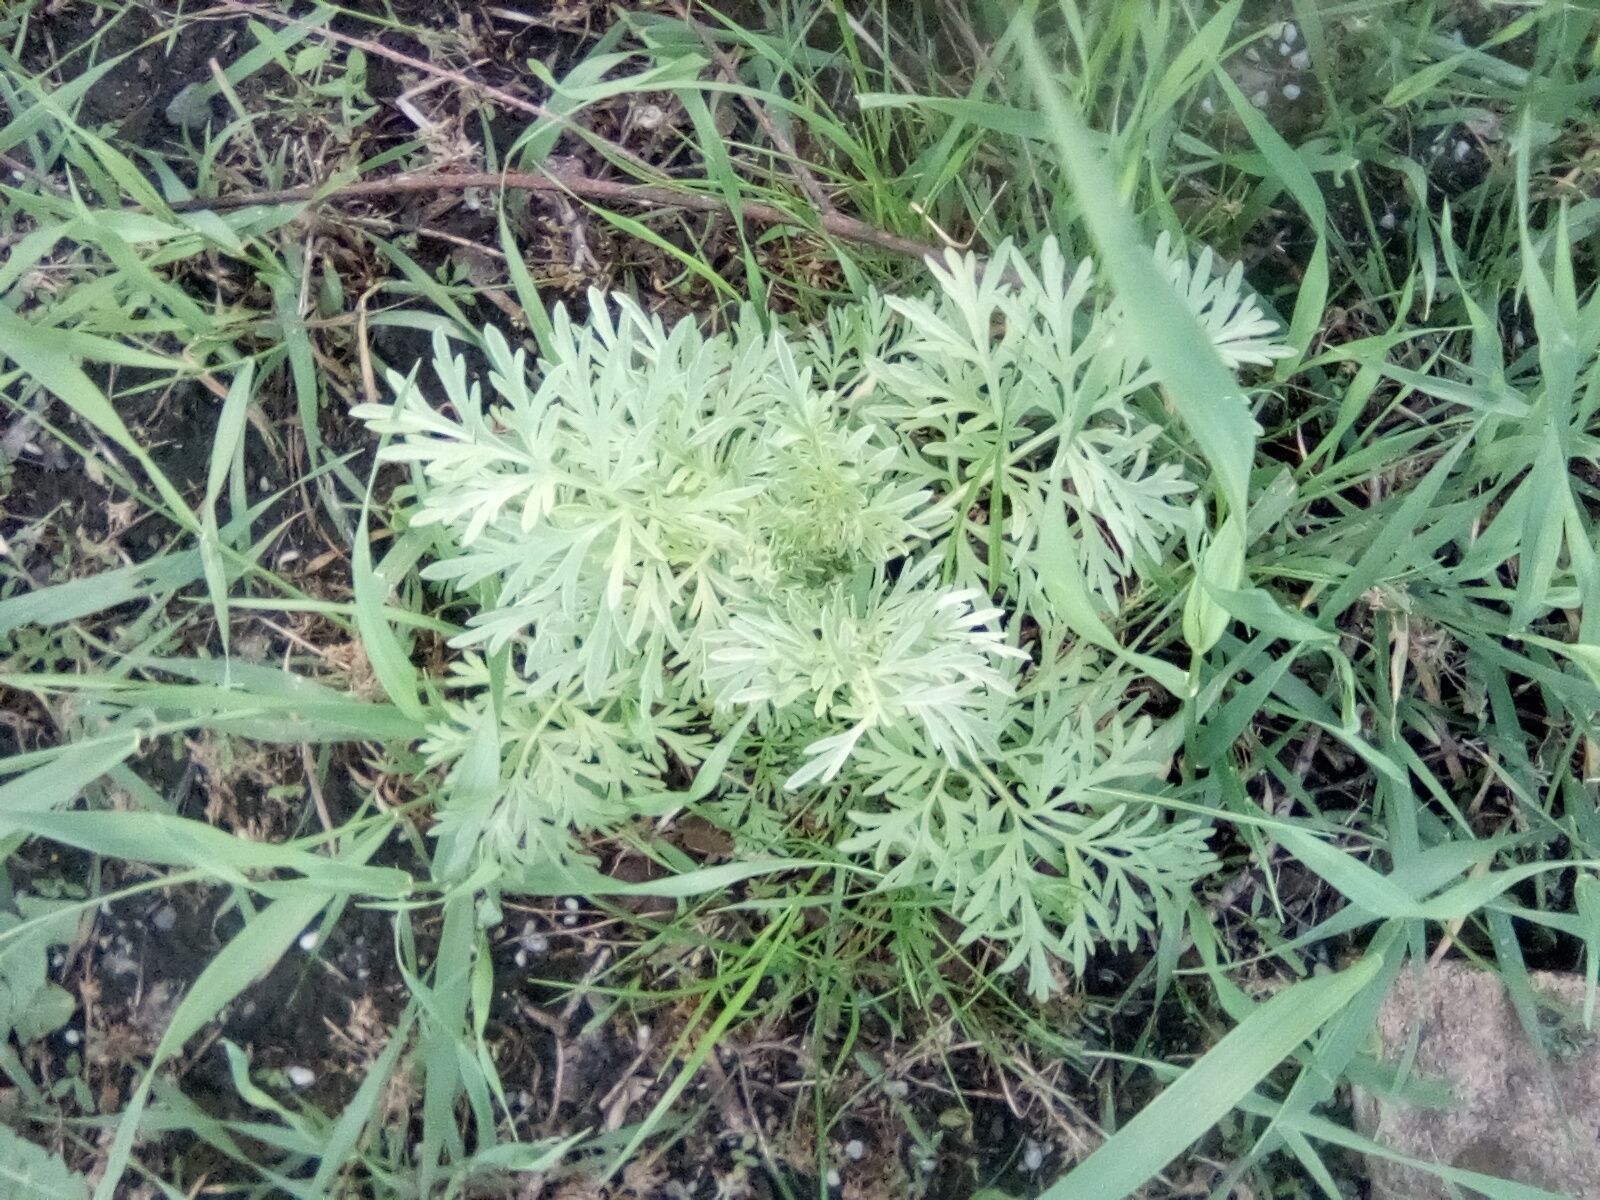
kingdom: Plantae
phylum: Tracheophyta
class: Magnoliopsida
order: Asterales
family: Asteraceae
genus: Artemisia
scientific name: Artemisia absinthium
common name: Wormwood
